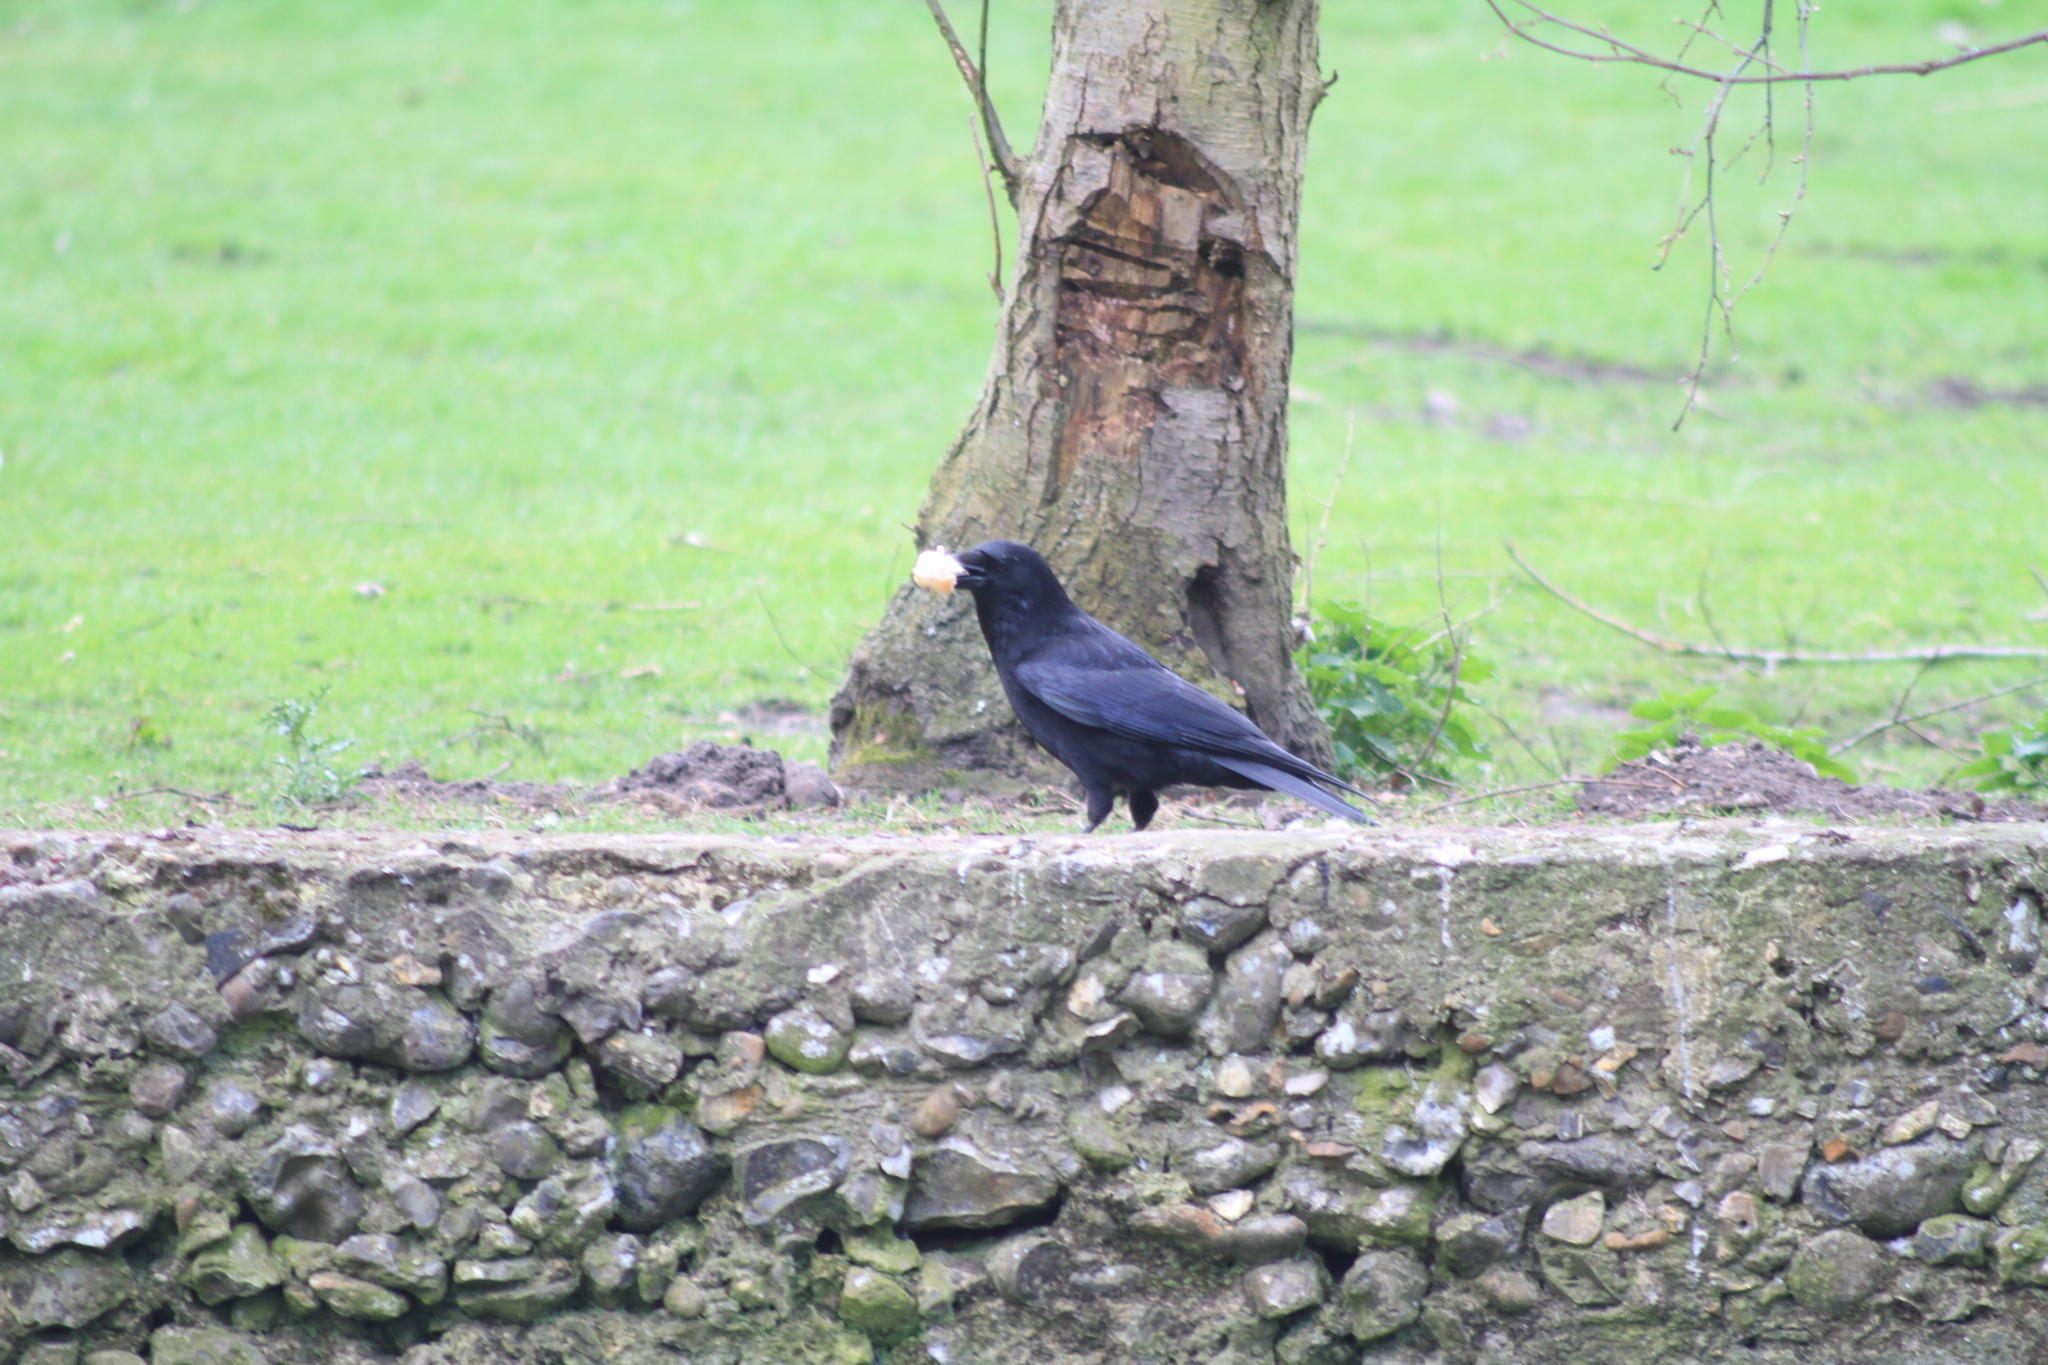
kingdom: Animalia
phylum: Chordata
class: Aves
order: Passeriformes
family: Corvidae
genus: Corvus
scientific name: Corvus corone
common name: Carrion crow
